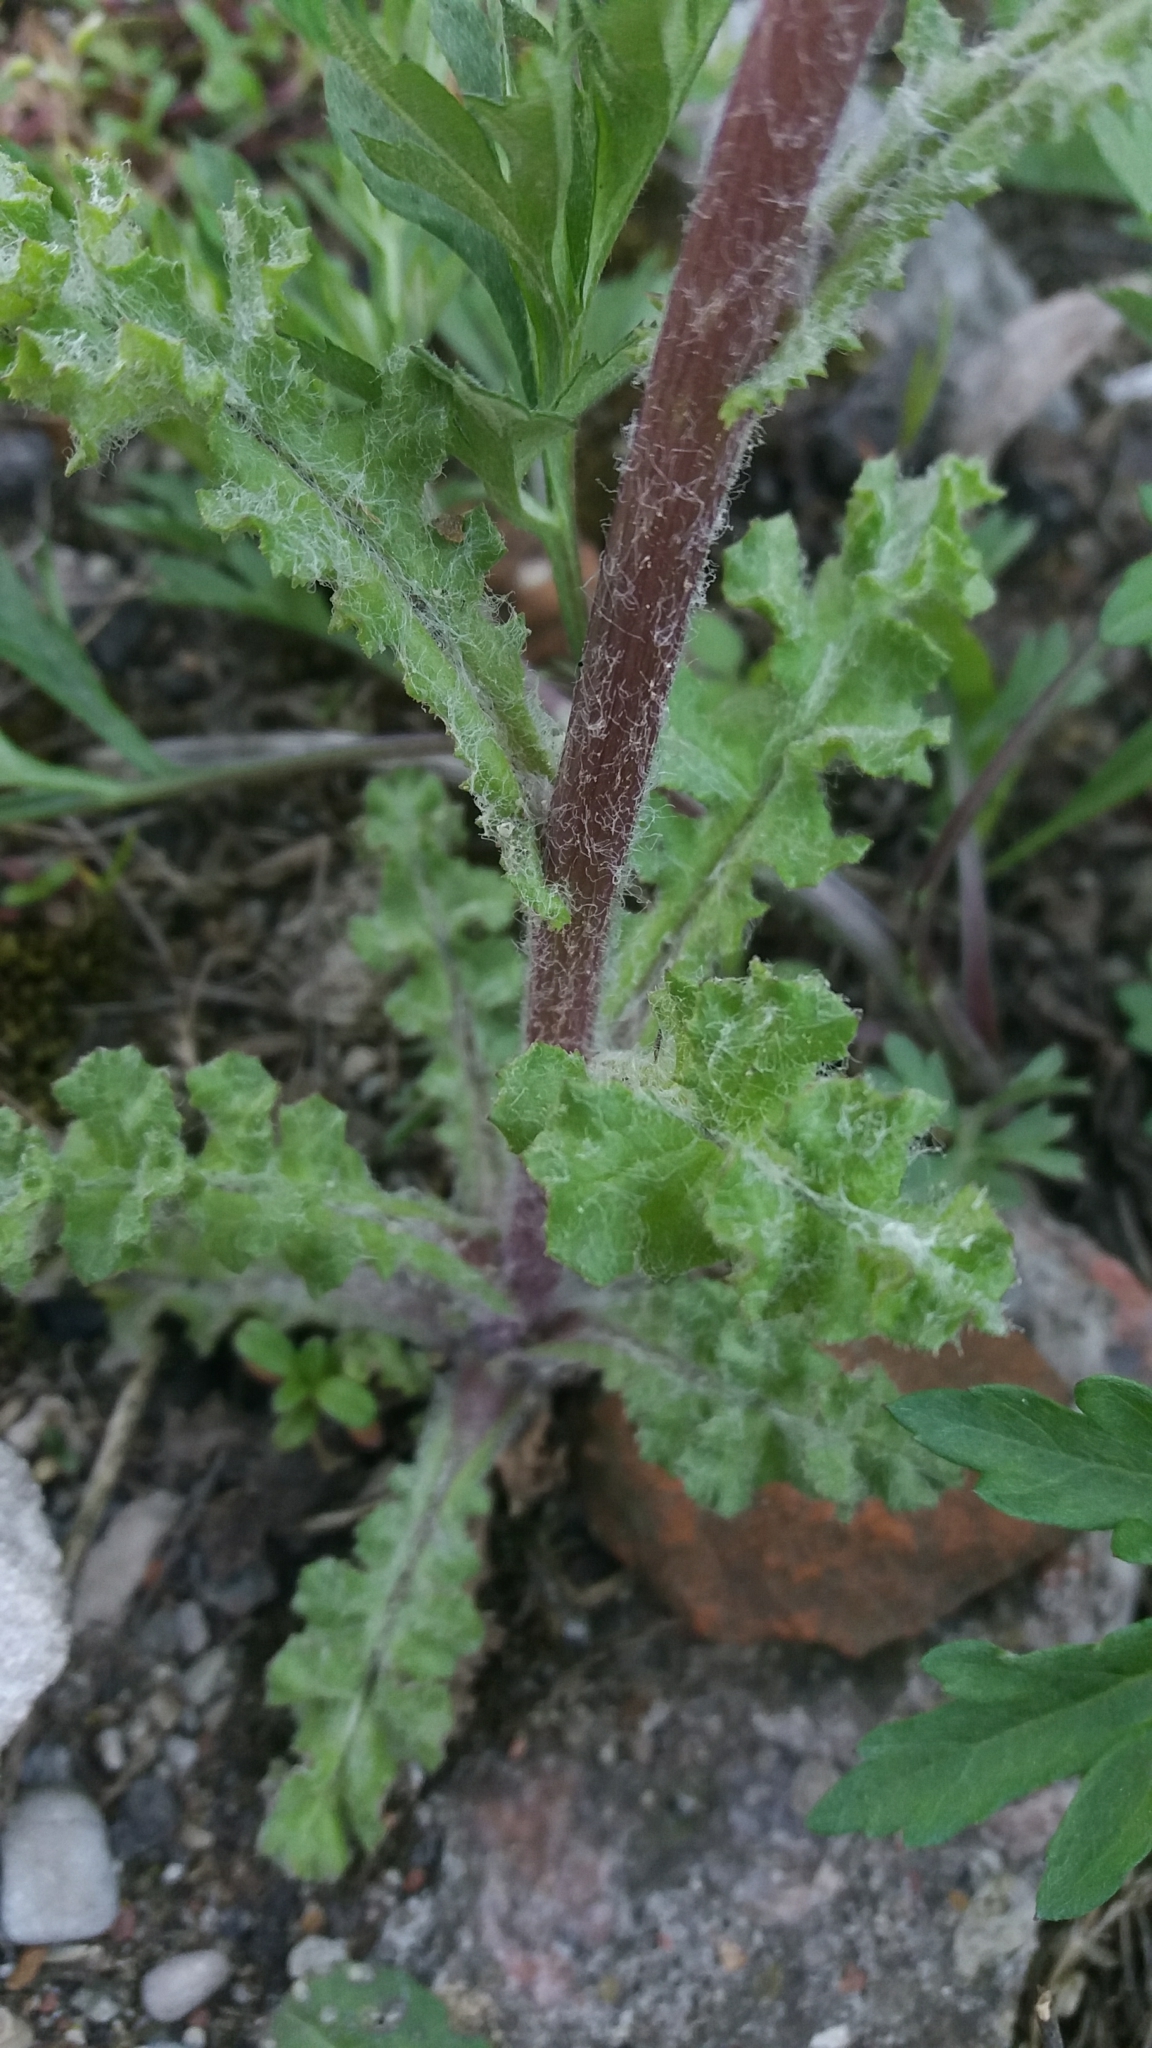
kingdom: Plantae
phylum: Tracheophyta
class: Magnoliopsida
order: Asterales
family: Asteraceae
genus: Senecio
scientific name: Senecio vernalis
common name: Eastern groundsel
